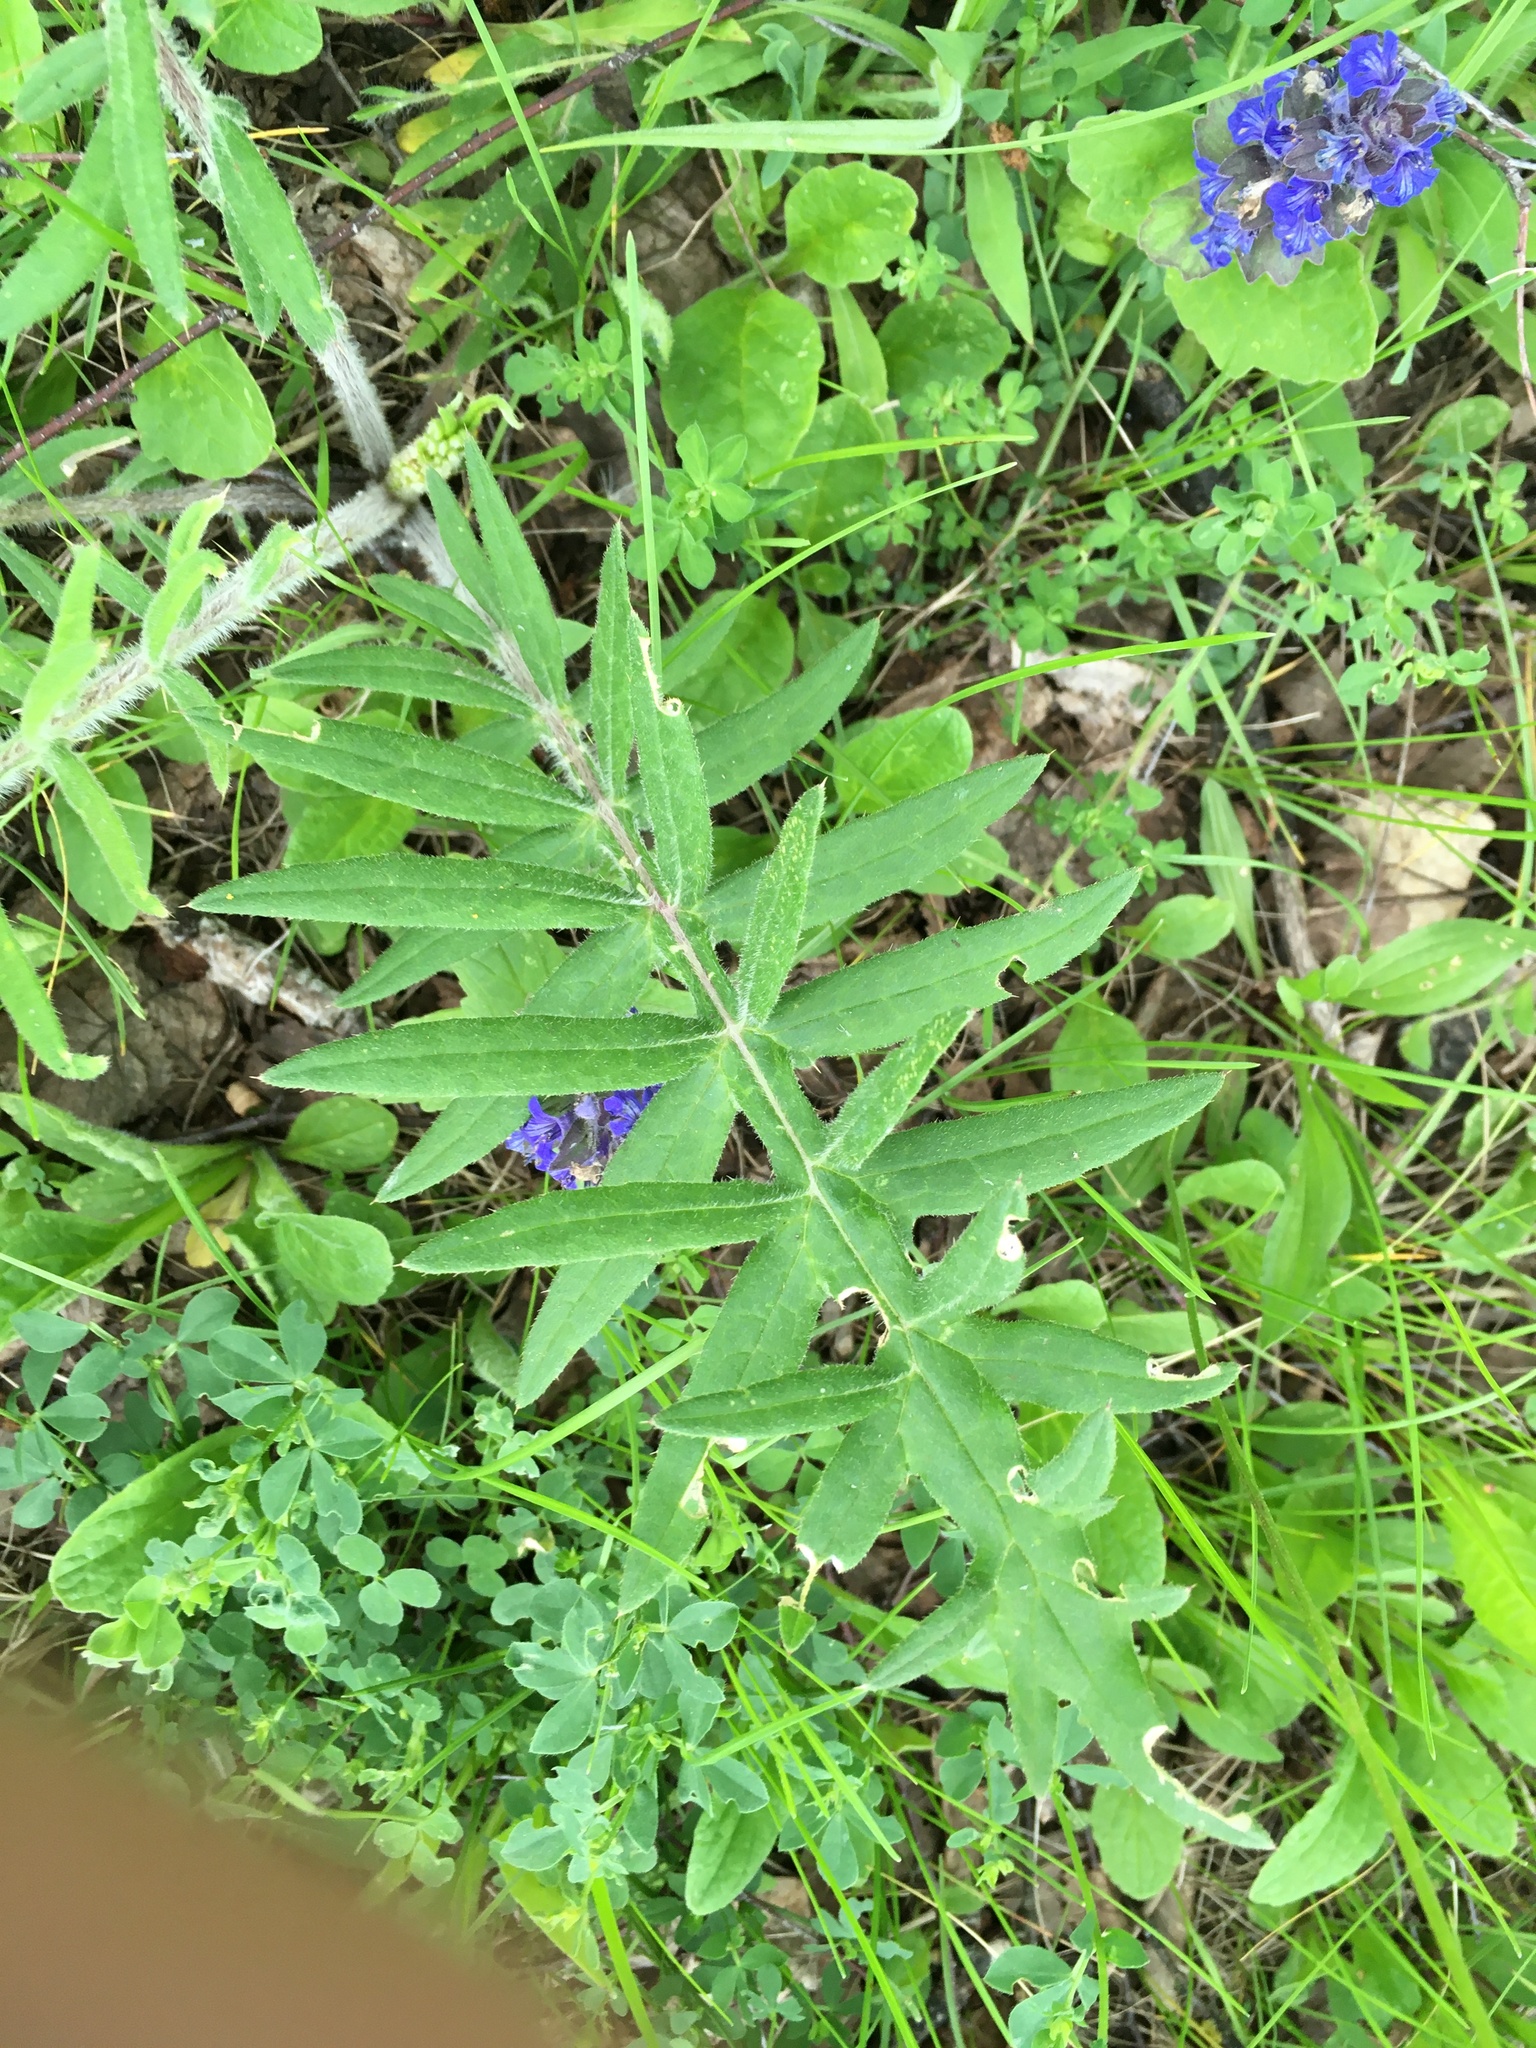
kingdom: Plantae
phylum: Tracheophyta
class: Magnoliopsida
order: Asterales
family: Asteraceae
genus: Lophiolepis
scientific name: Lophiolepis decussata
